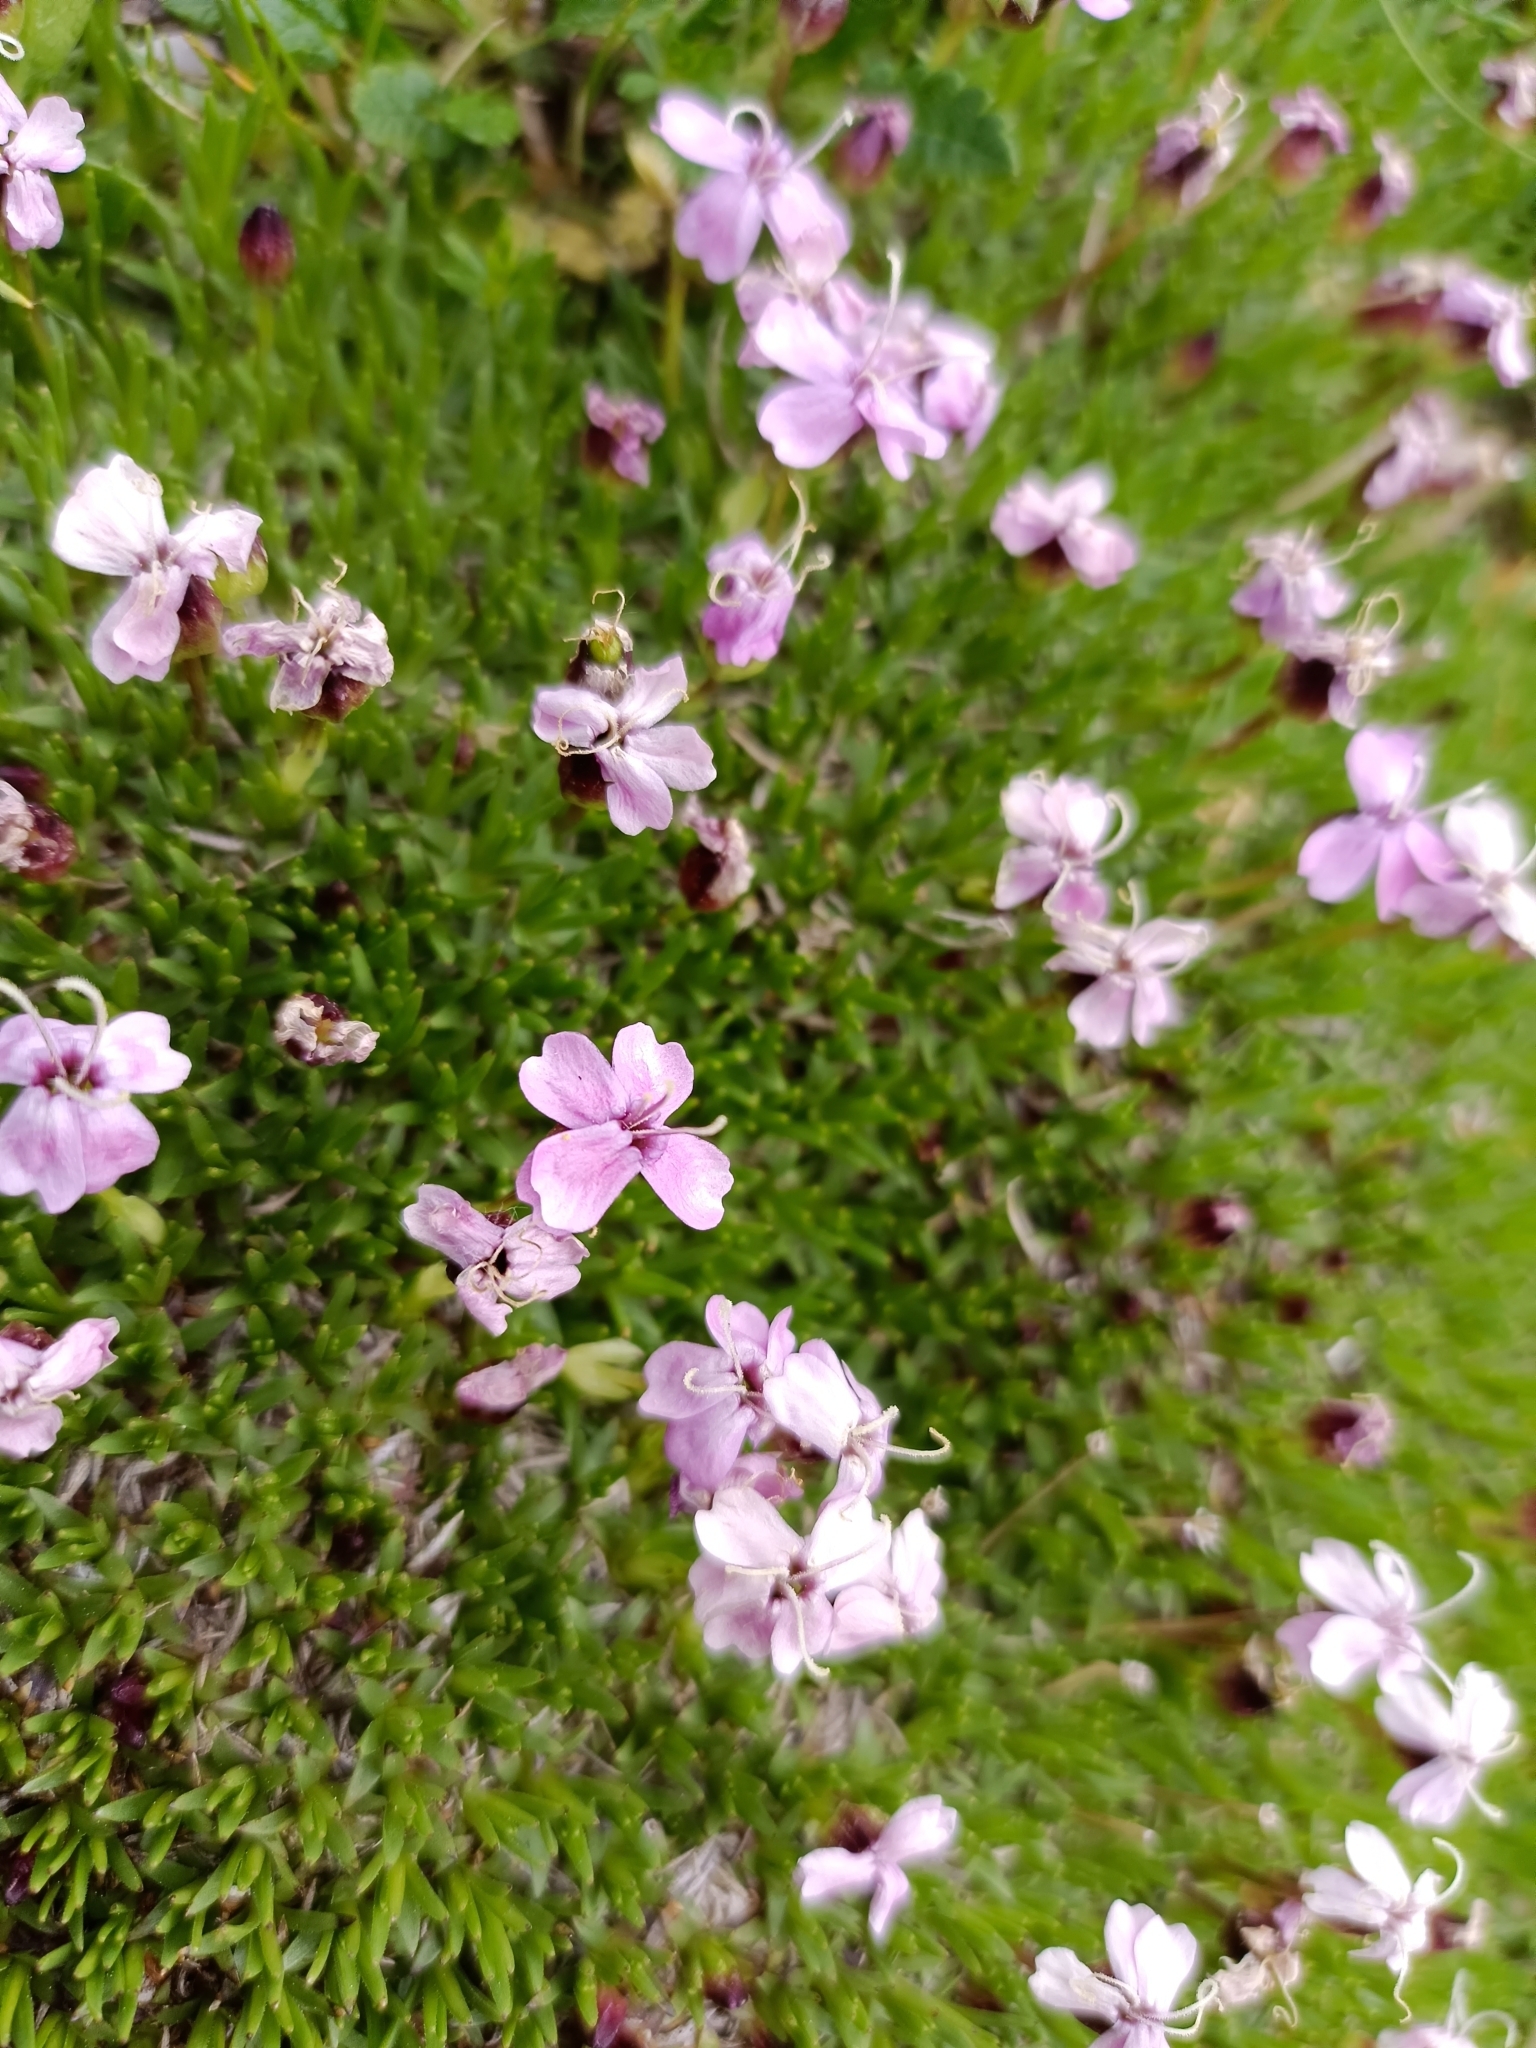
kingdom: Plantae
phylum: Tracheophyta
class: Magnoliopsida
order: Caryophyllales
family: Caryophyllaceae
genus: Silene
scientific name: Silene acaulis
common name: Moss campion
